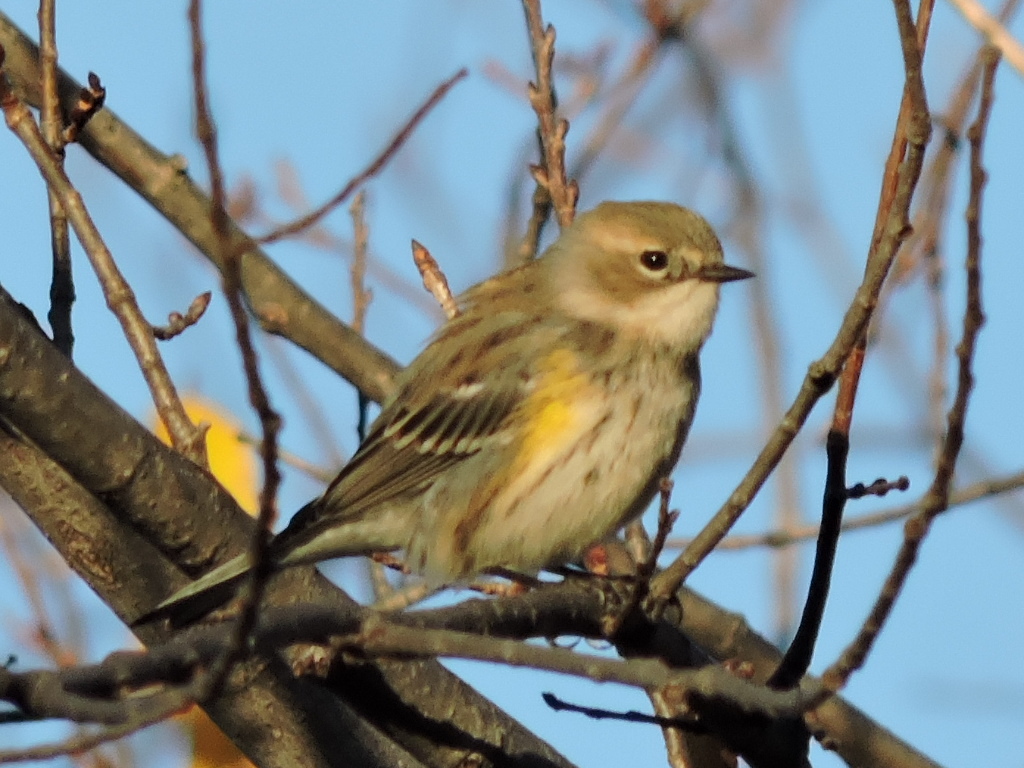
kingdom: Animalia
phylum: Chordata
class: Aves
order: Passeriformes
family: Parulidae
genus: Setophaga
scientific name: Setophaga coronata
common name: Myrtle warbler
